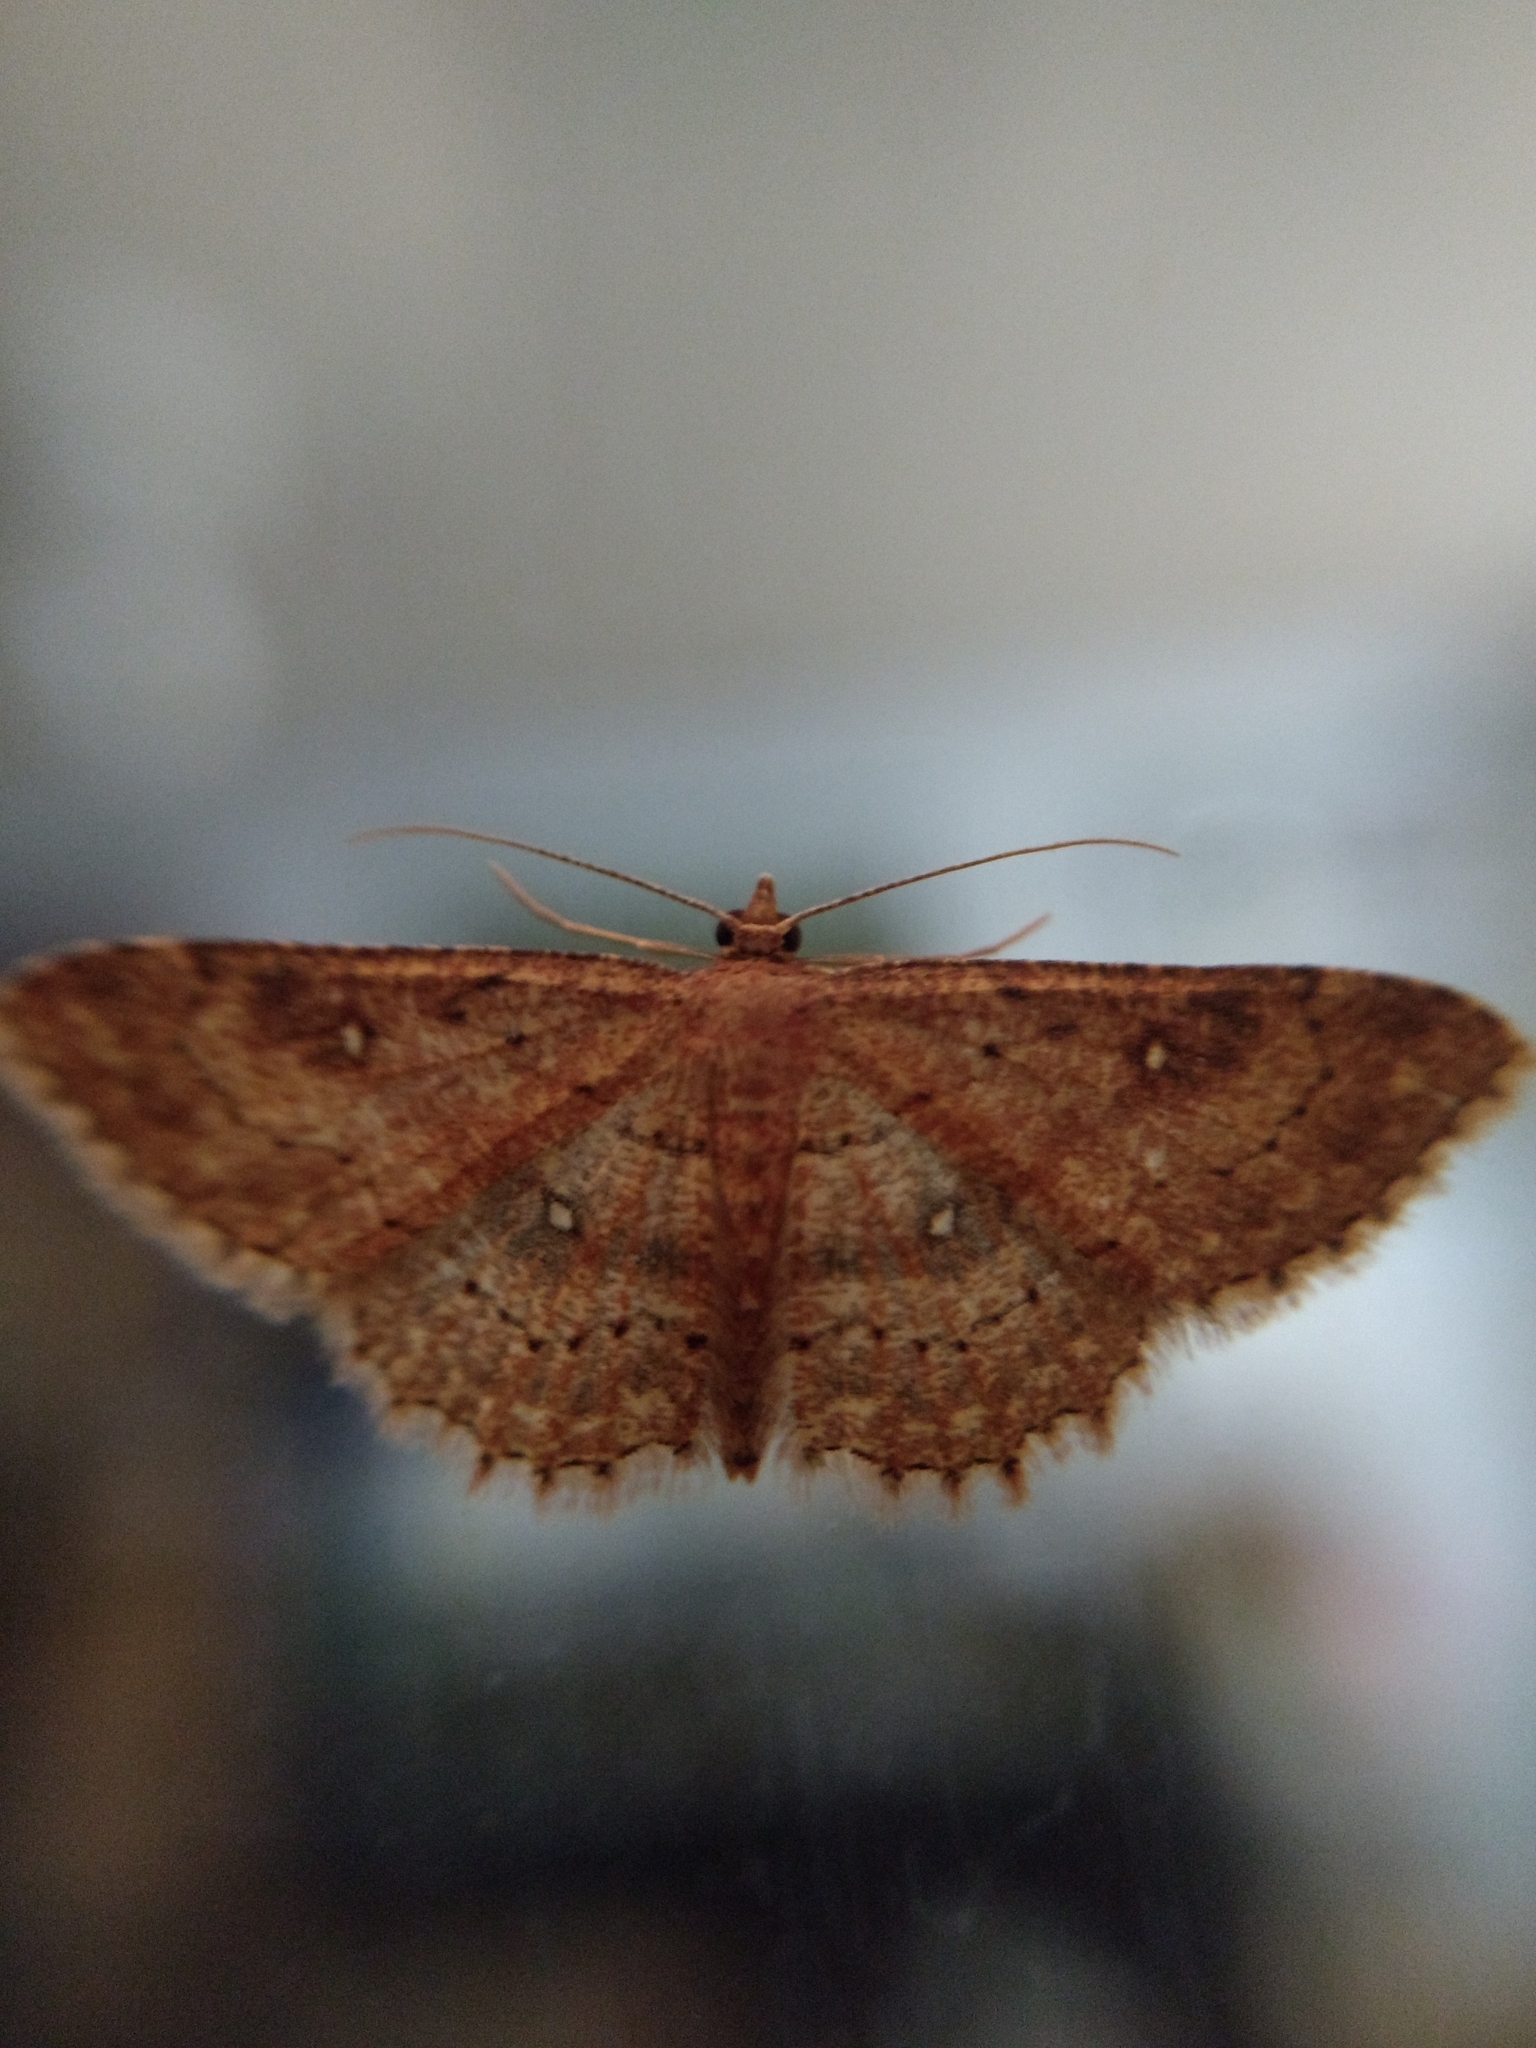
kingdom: Animalia
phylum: Arthropoda
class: Insecta
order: Lepidoptera
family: Geometridae
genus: Cyclophora
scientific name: Cyclophora nanaria
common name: Cankerworm
